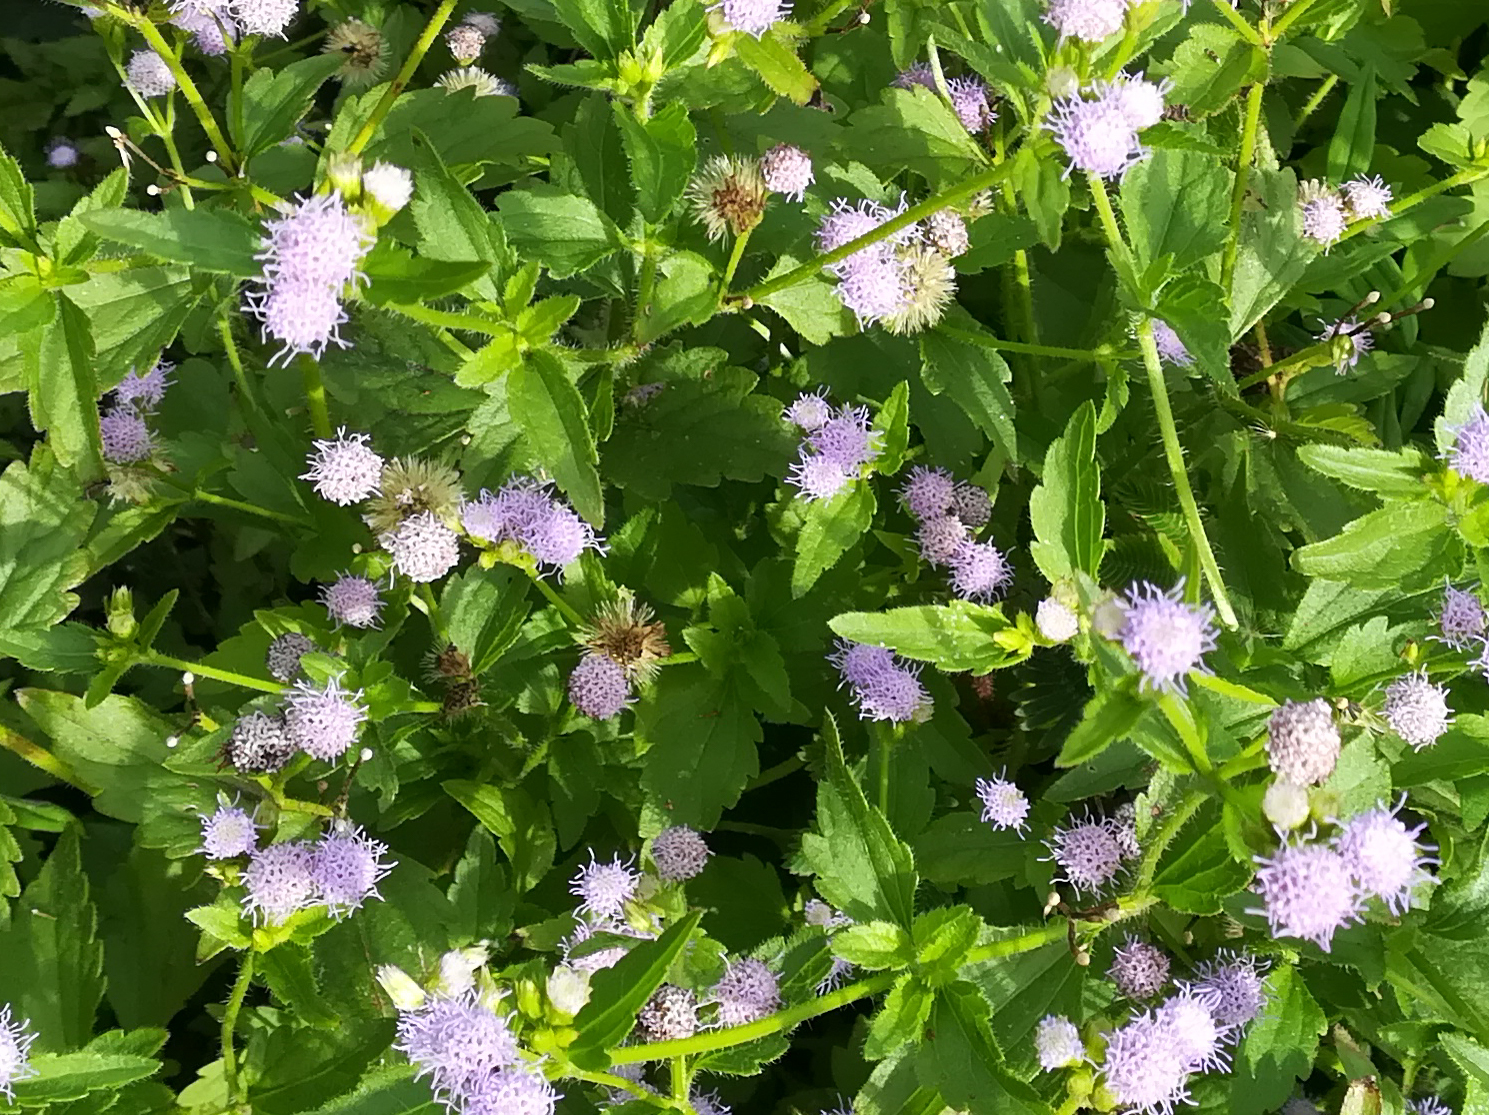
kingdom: Plantae
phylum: Tracheophyta
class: Magnoliopsida
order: Asterales
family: Asteraceae
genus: Praxelis
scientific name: Praxelis clematidea
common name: Praxelis
